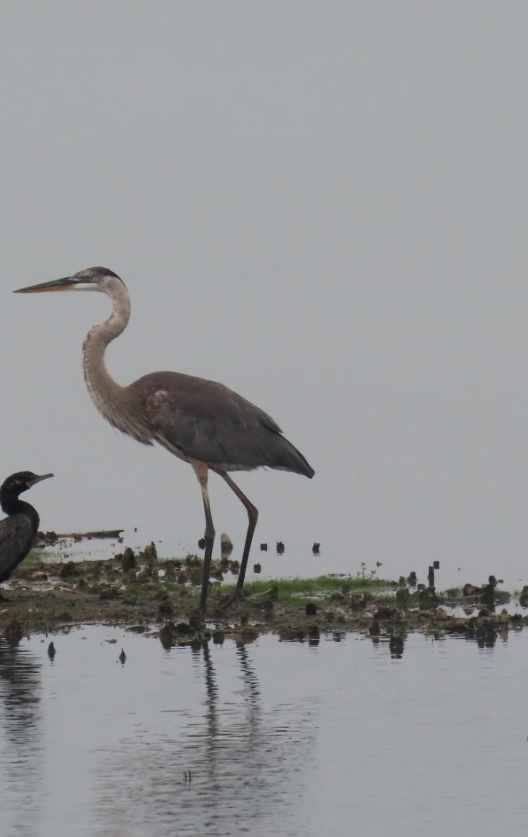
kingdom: Animalia
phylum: Chordata
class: Aves
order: Pelecaniformes
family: Ardeidae
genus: Ardea
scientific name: Ardea herodias
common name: Great blue heron
